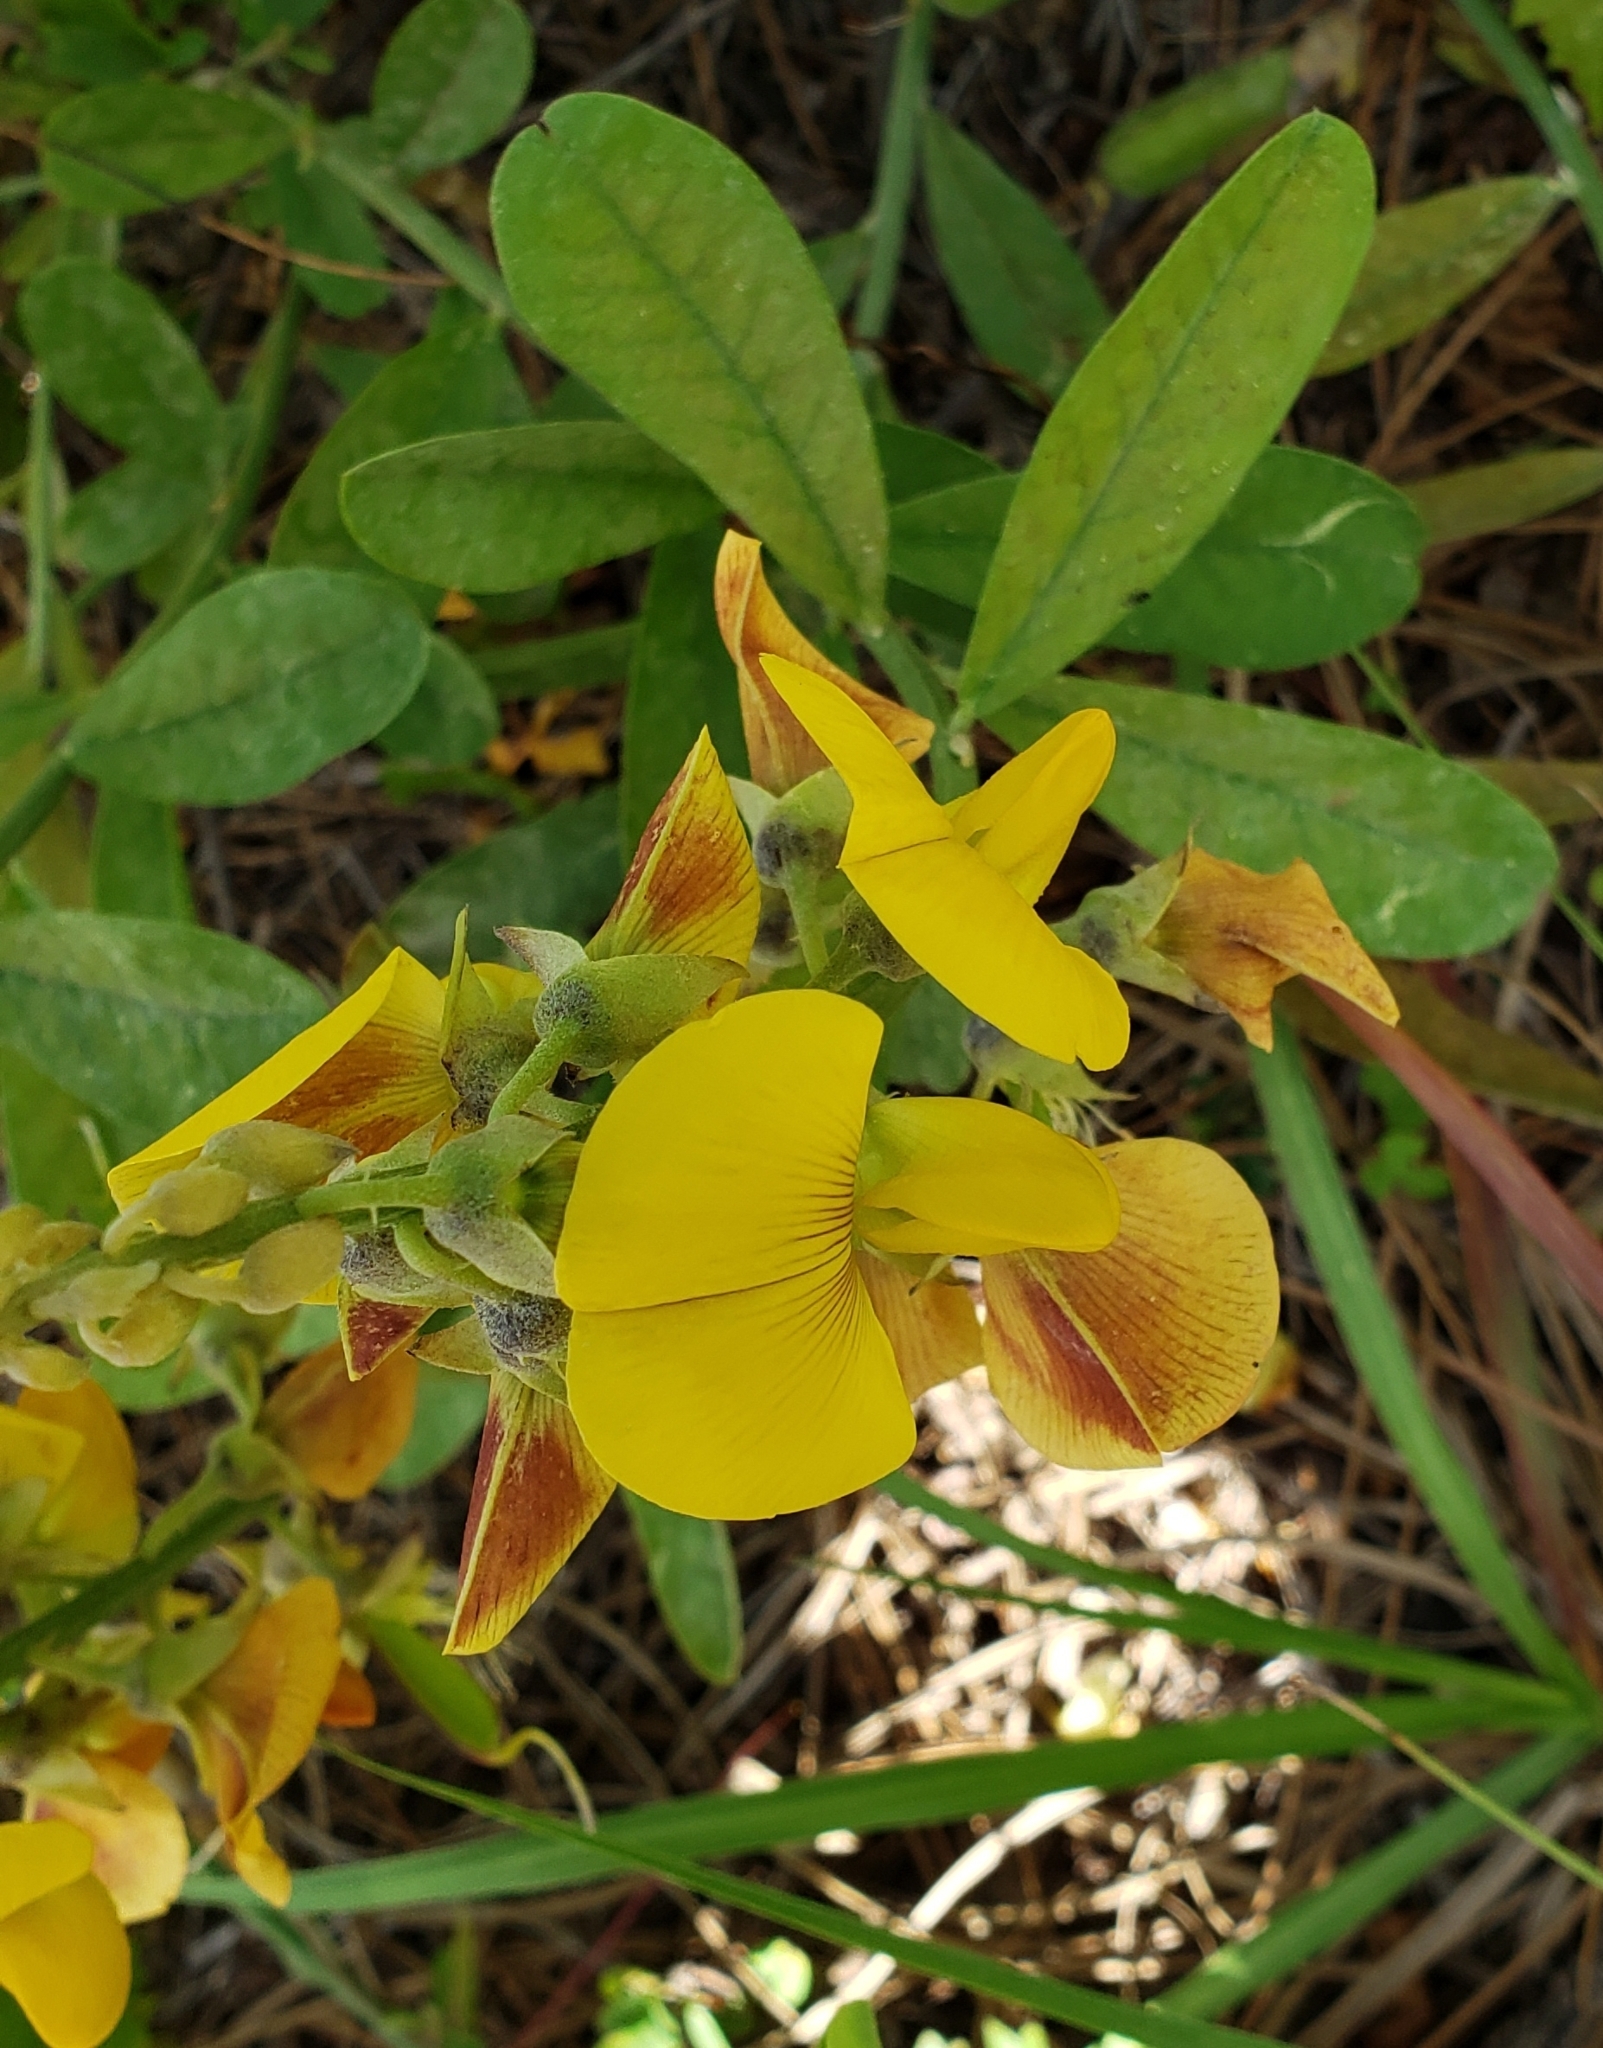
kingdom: Plantae
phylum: Tracheophyta
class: Magnoliopsida
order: Fabales
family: Fabaceae
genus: Crotalaria
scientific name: Crotalaria spectabilis
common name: Showy rattlebox
